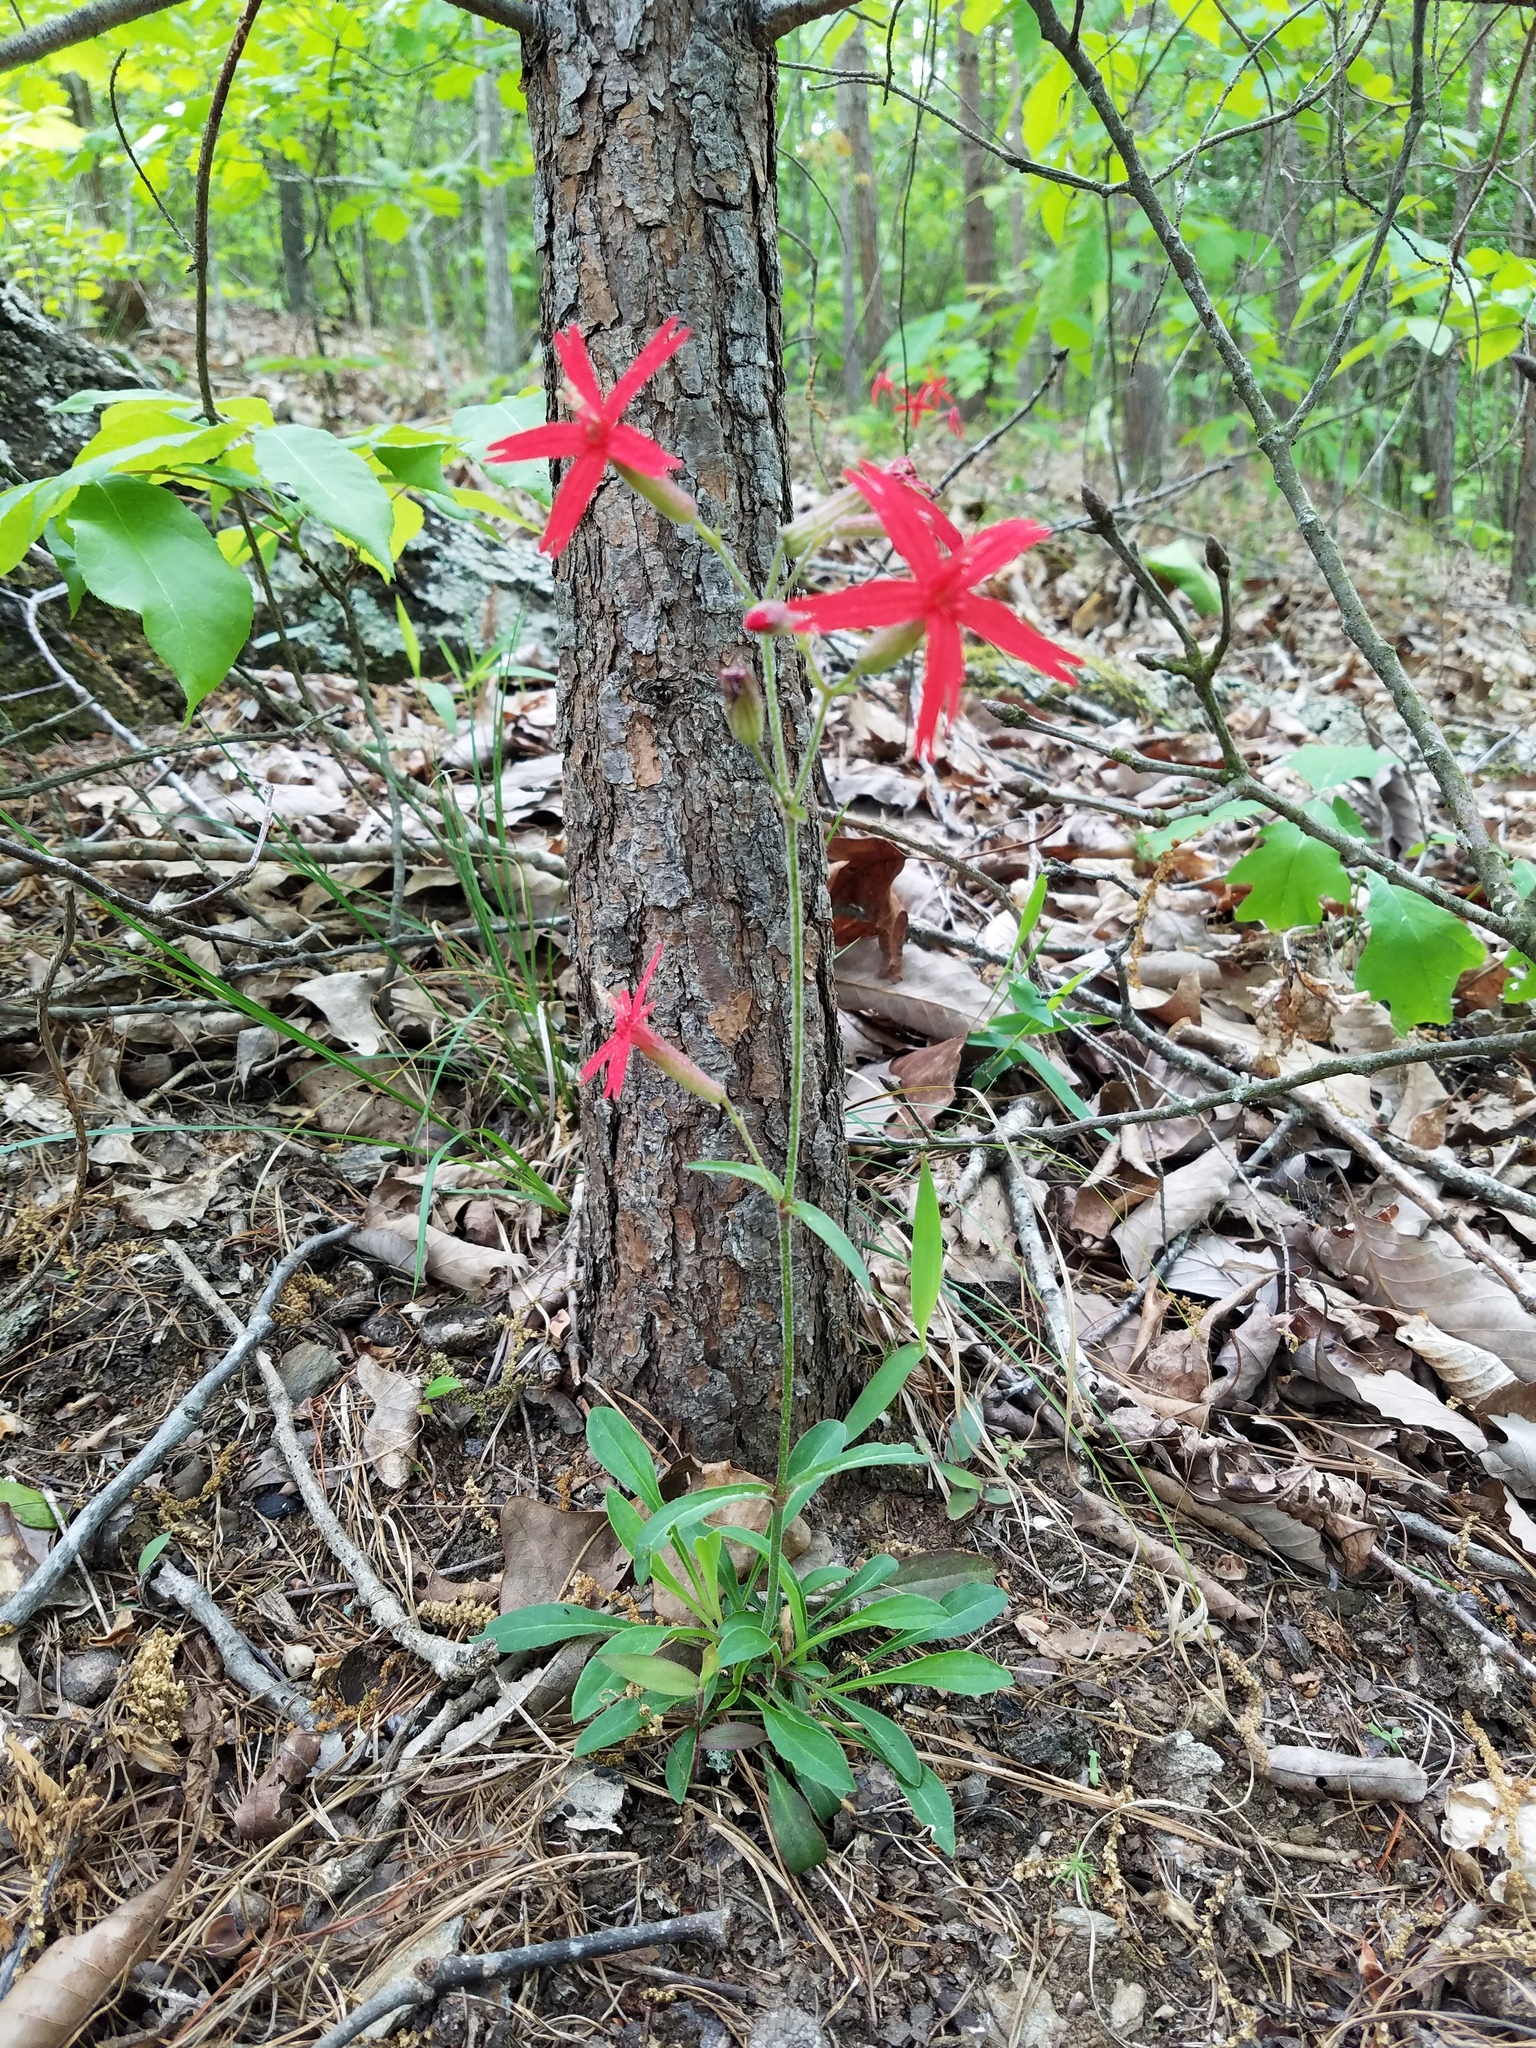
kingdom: Plantae
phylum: Tracheophyta
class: Magnoliopsida
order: Caryophyllales
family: Caryophyllaceae
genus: Silene
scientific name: Silene virginica
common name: Fire-pink
